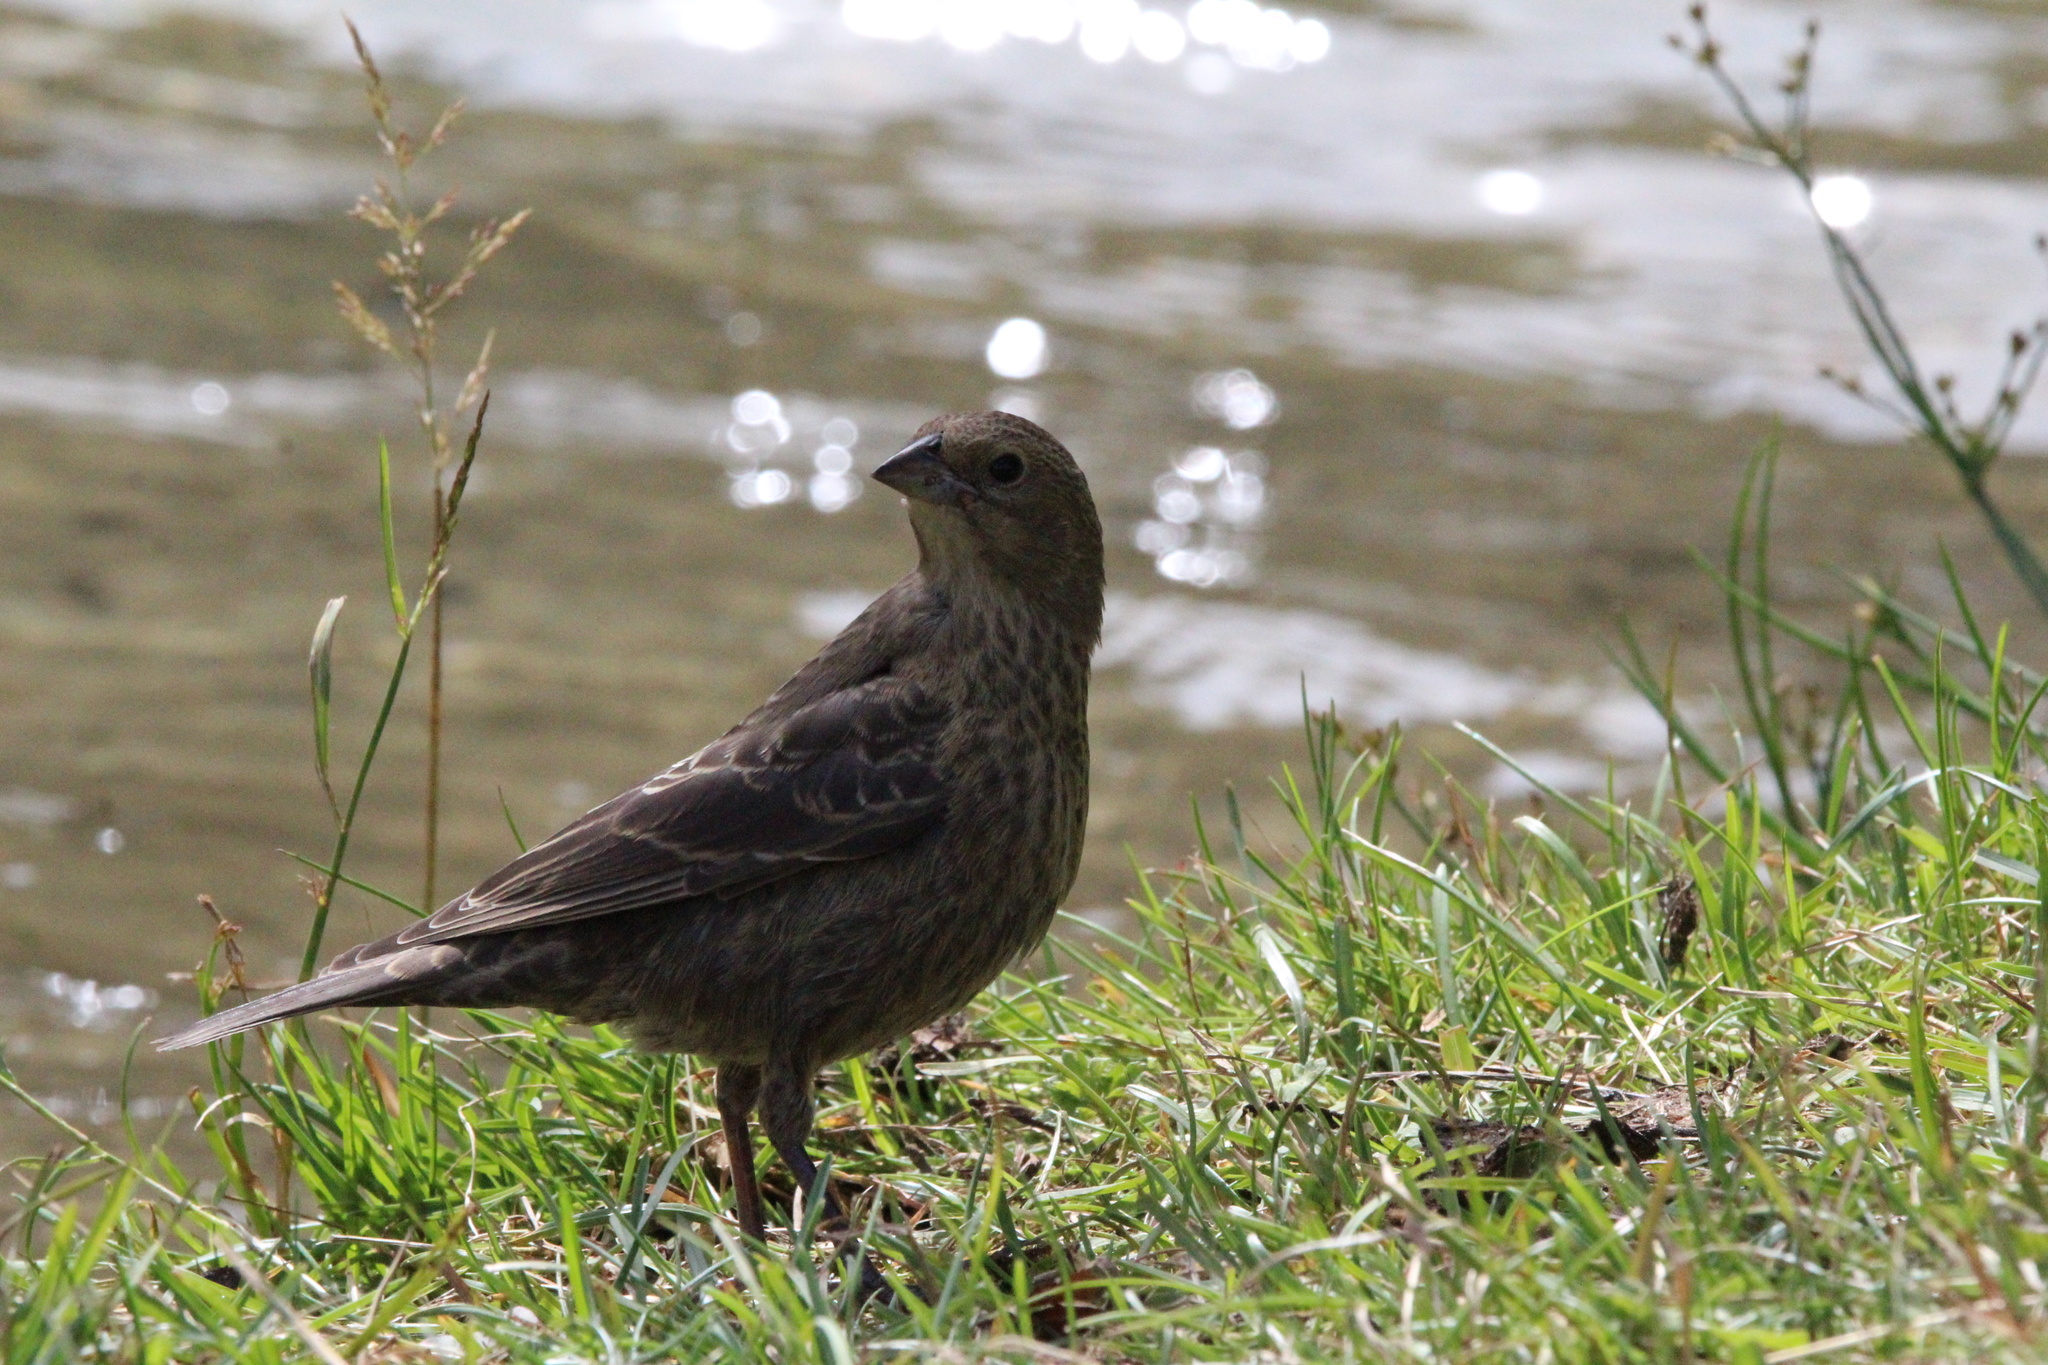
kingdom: Animalia
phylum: Chordata
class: Aves
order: Passeriformes
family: Icteridae
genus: Molothrus
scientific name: Molothrus ater
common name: Brown-headed cowbird
